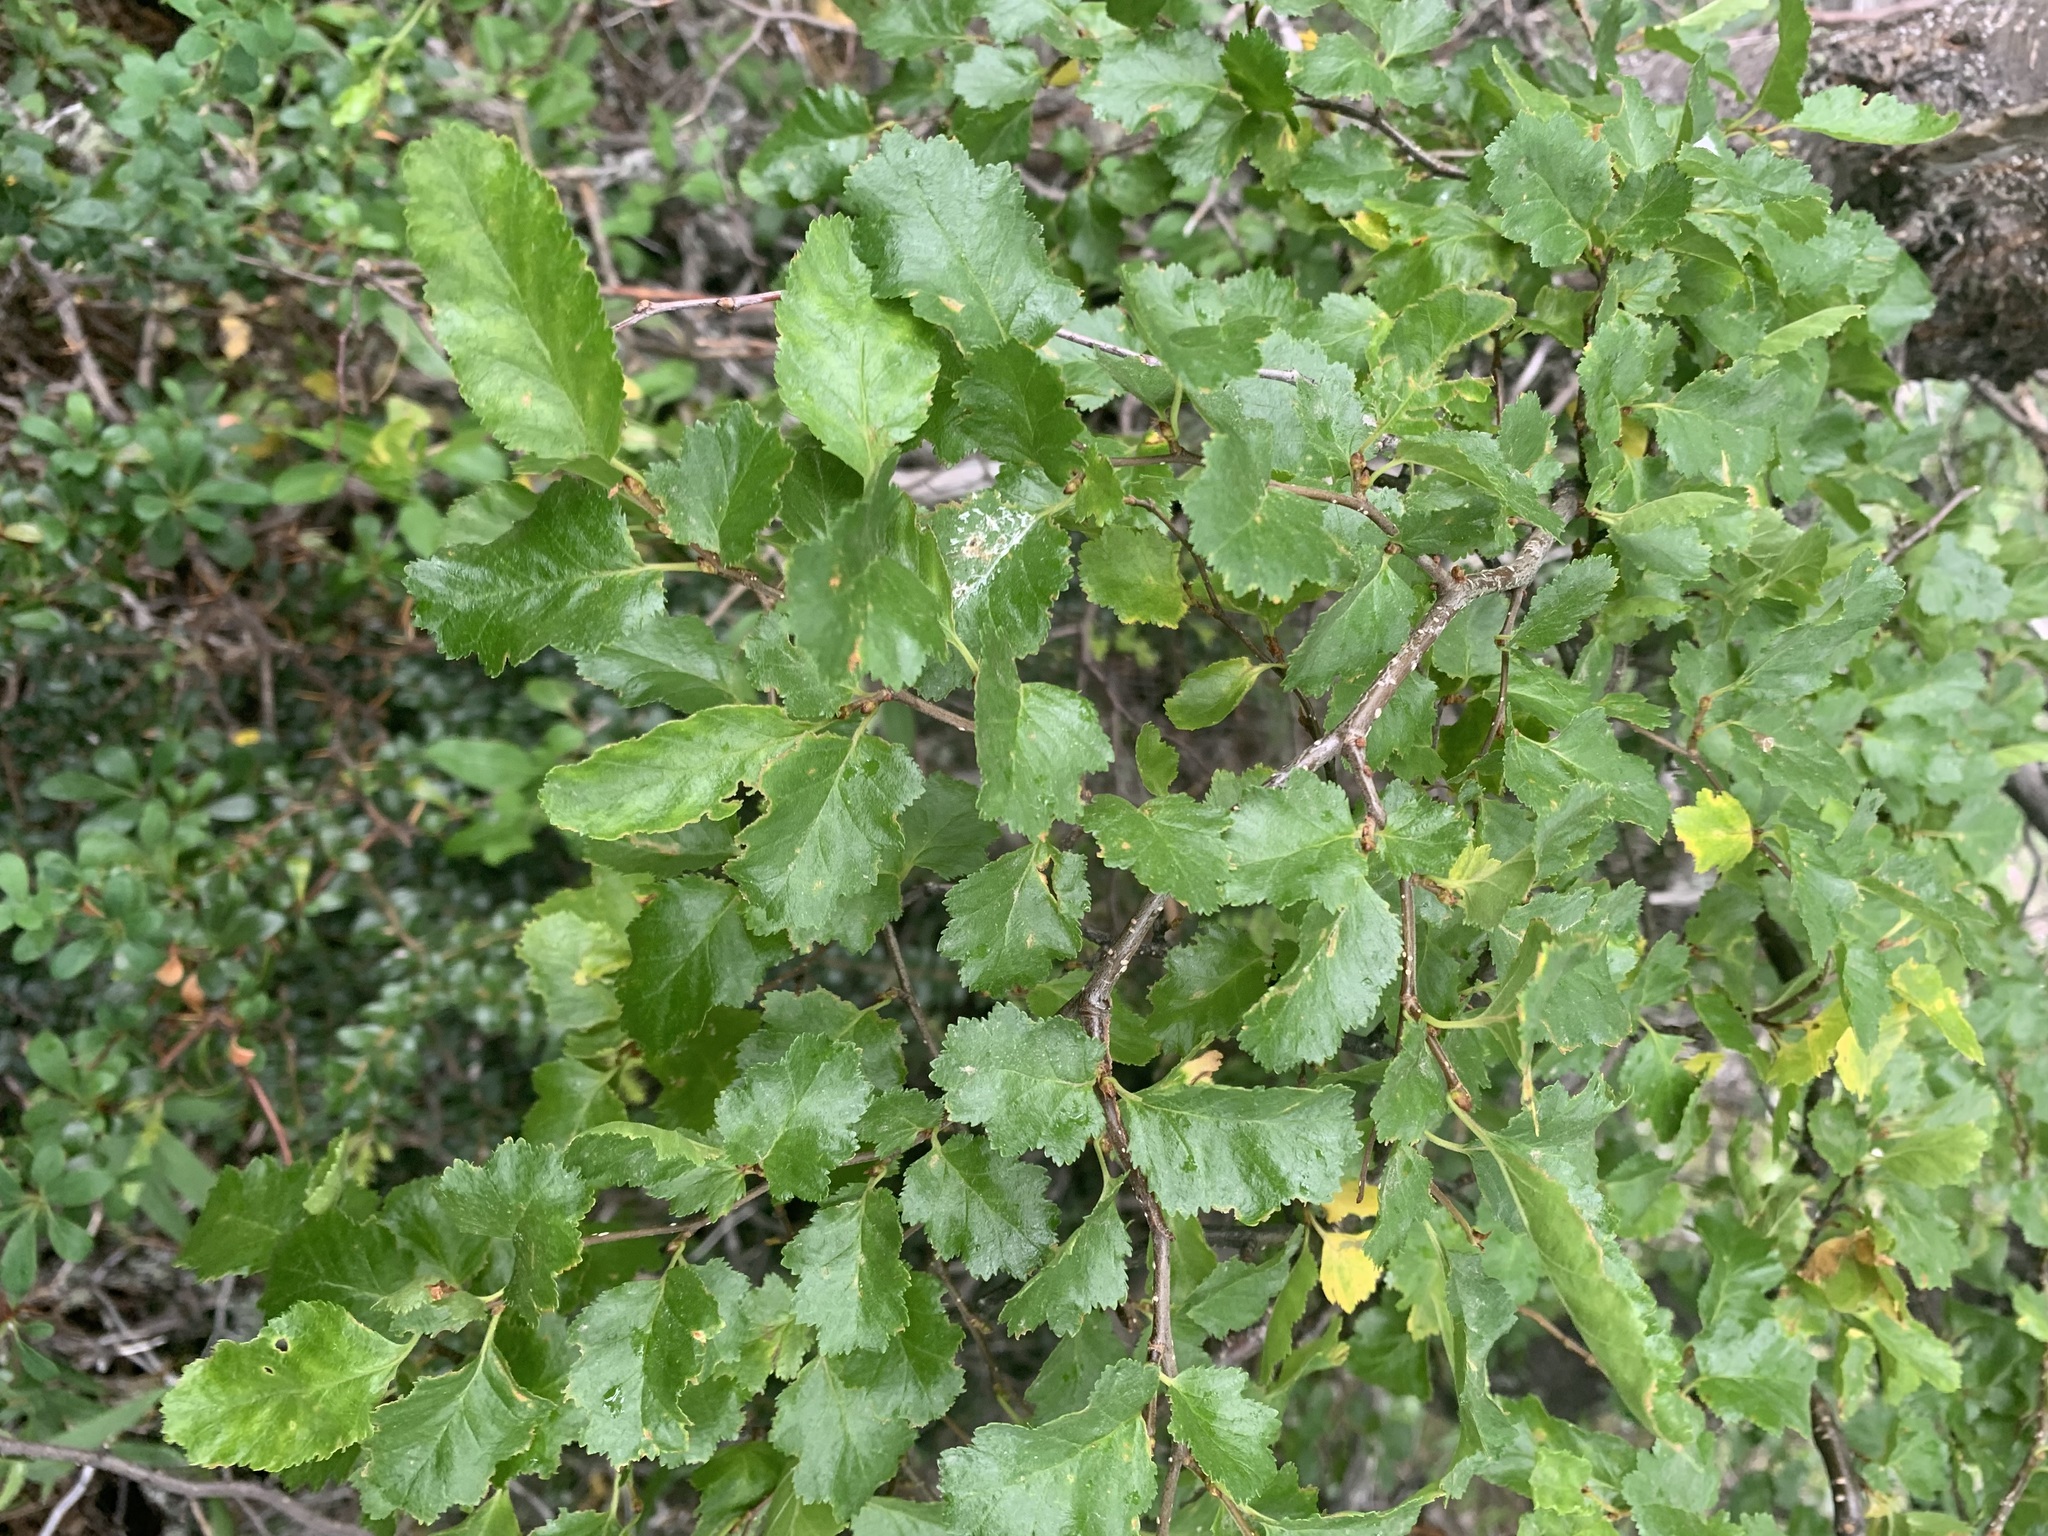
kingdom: Plantae
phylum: Tracheophyta
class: Magnoliopsida
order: Fagales
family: Nothofagaceae
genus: Nothofagus
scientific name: Nothofagus antarctica
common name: Antarctic beech
